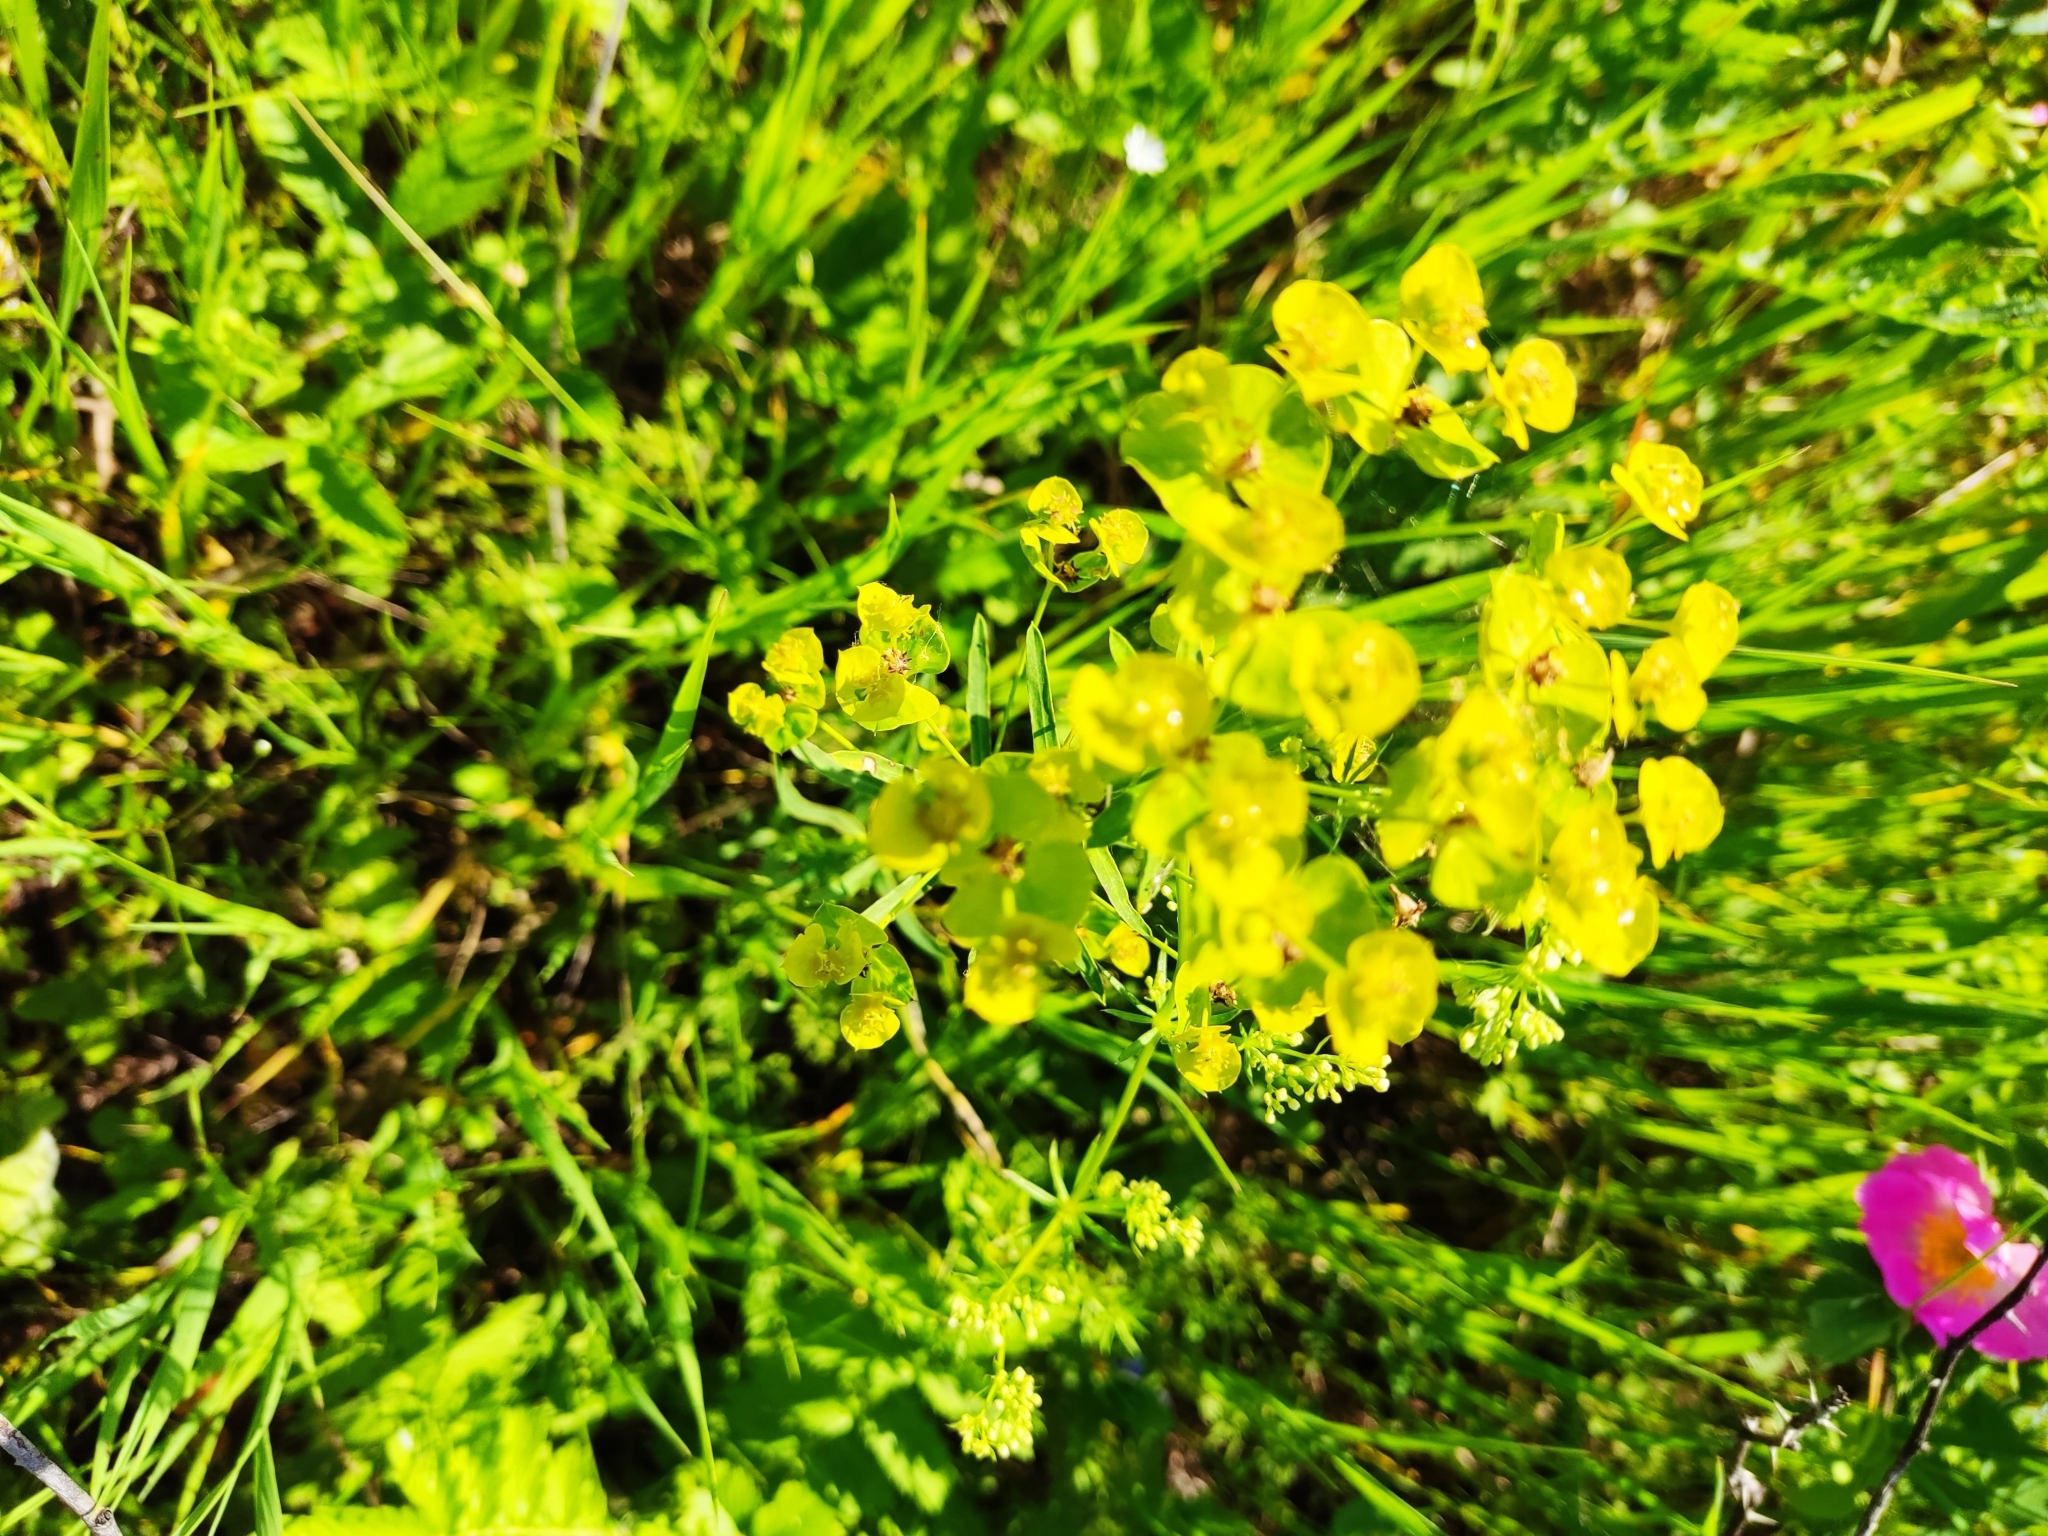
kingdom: Plantae
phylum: Tracheophyta
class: Magnoliopsida
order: Malpighiales
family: Euphorbiaceae
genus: Euphorbia
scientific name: Euphorbia virgata
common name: Leafy spurge
